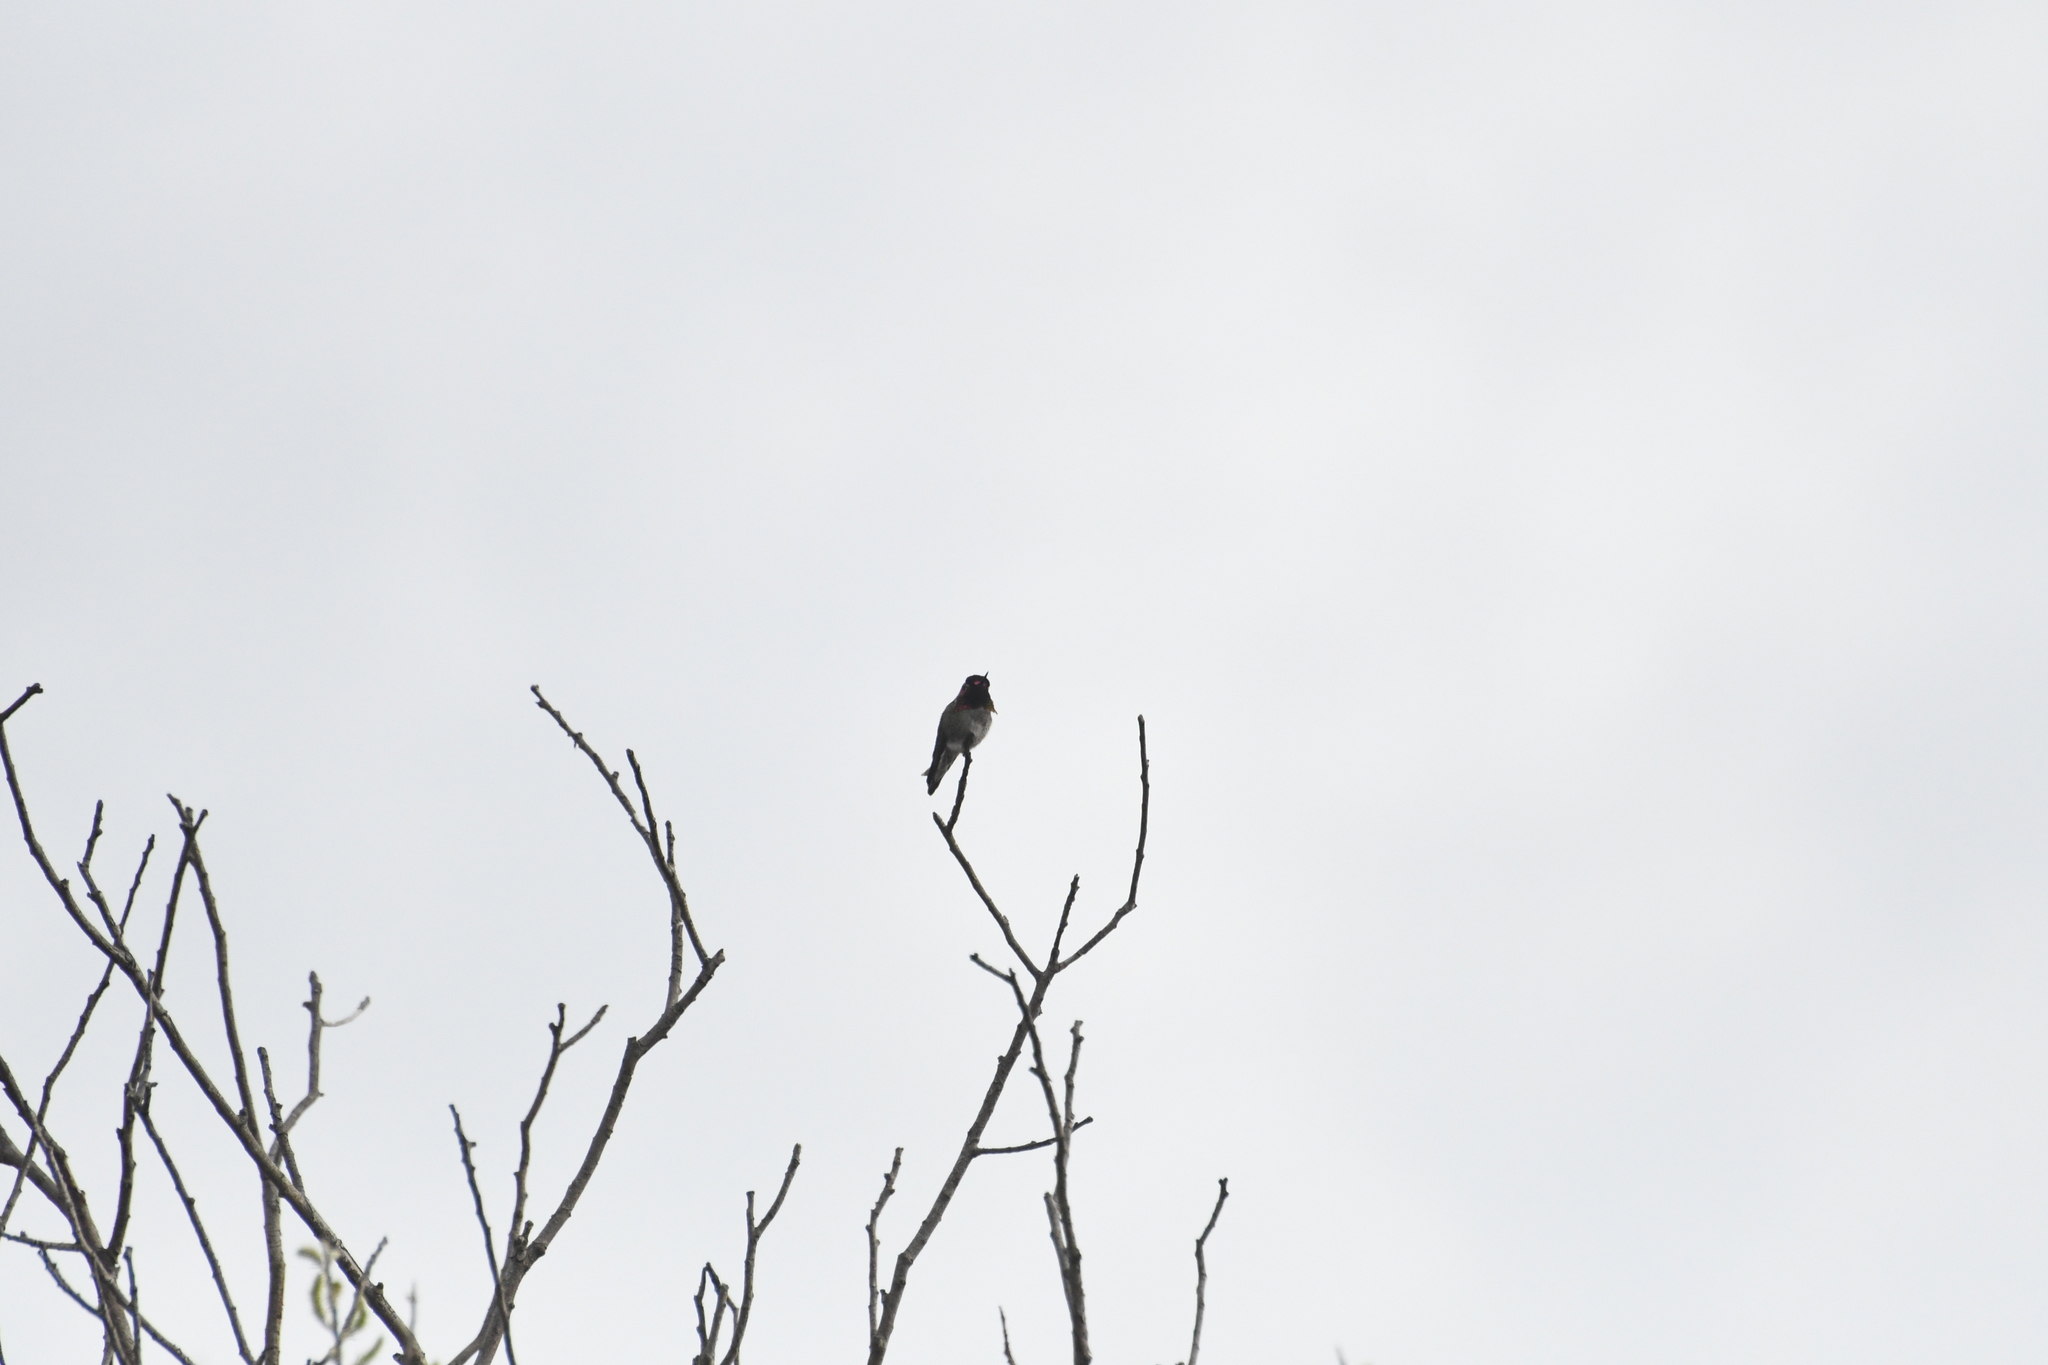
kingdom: Animalia
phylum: Chordata
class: Aves
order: Apodiformes
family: Trochilidae
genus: Calypte
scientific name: Calypte anna
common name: Anna's hummingbird
